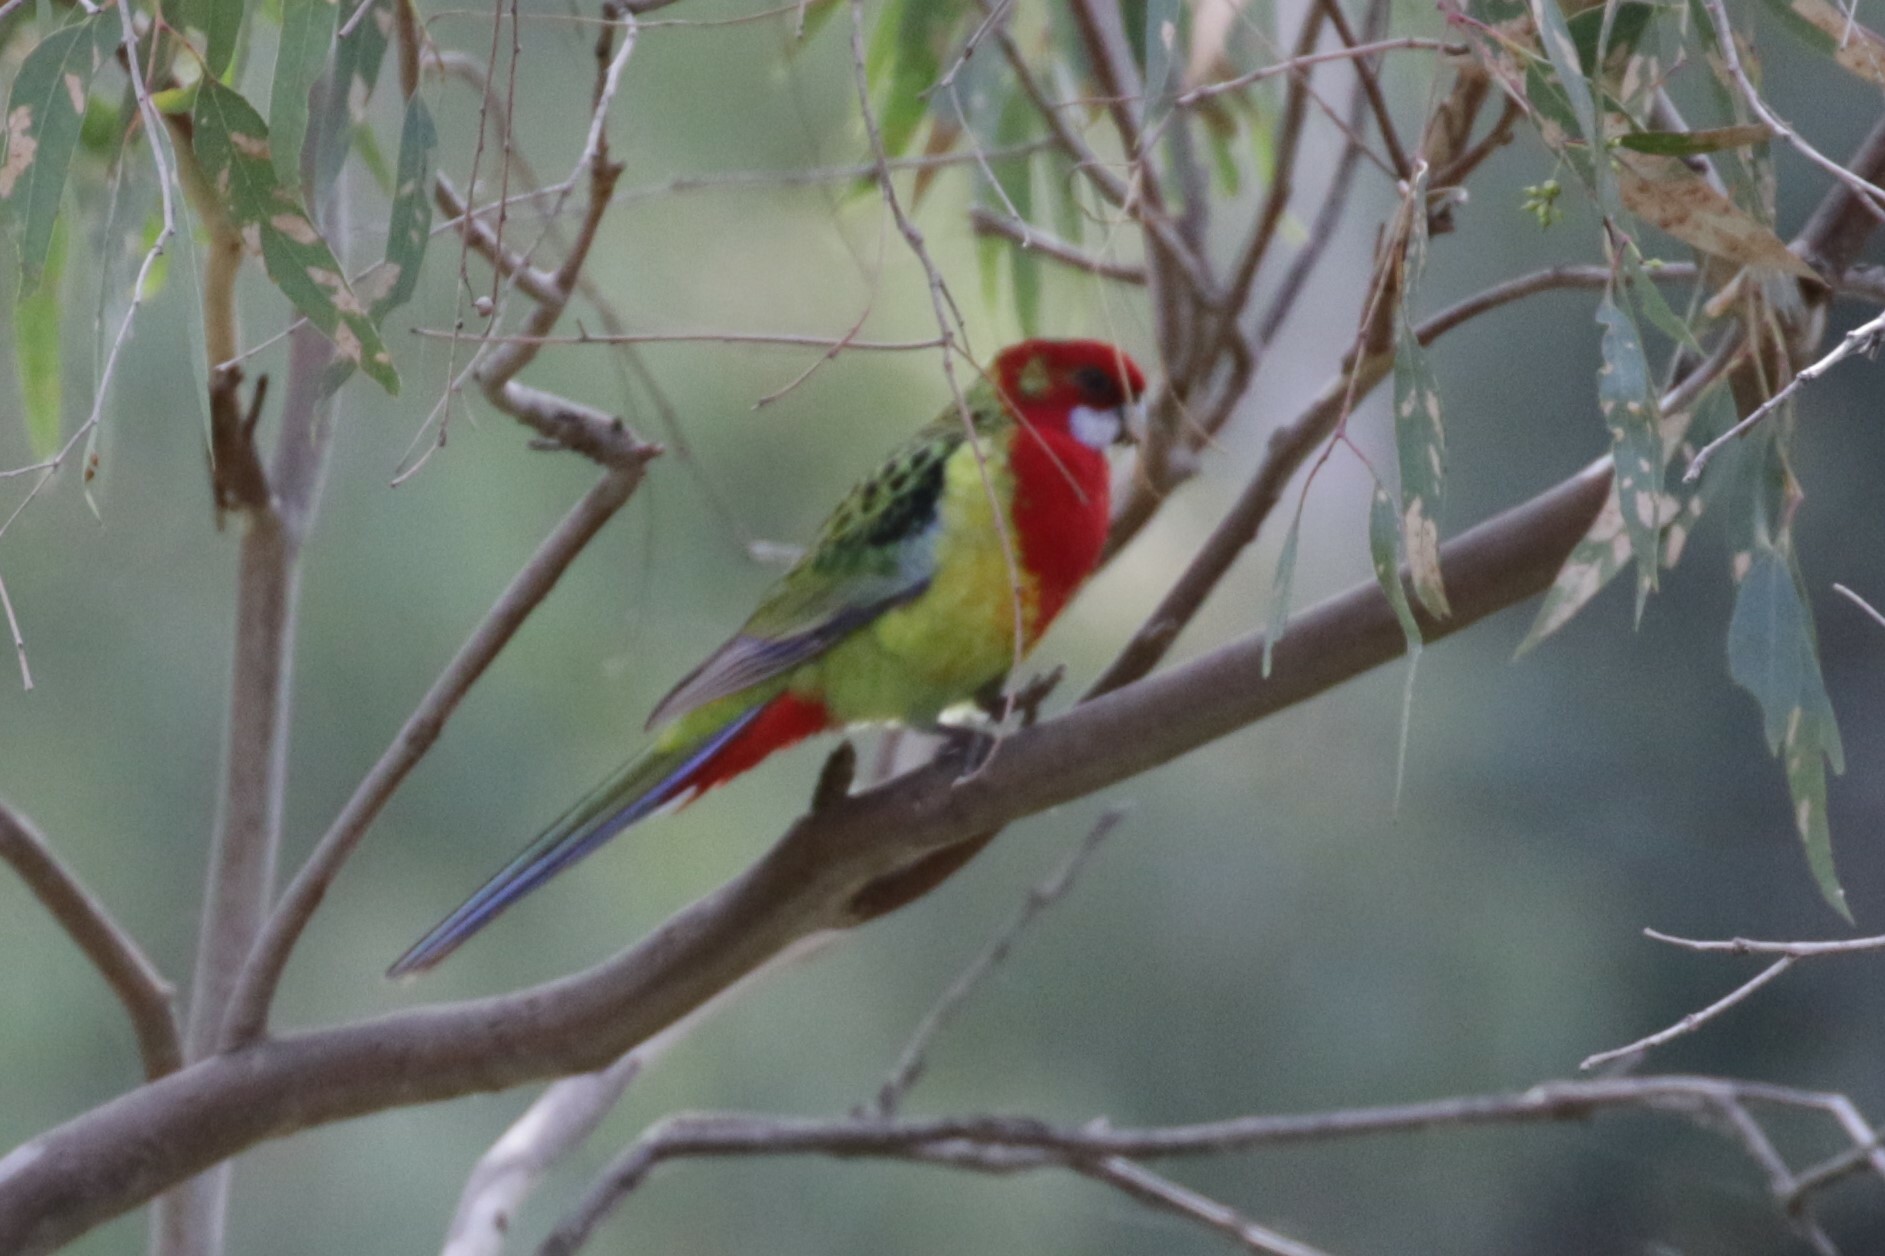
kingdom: Animalia
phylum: Chordata
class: Aves
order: Psittaciformes
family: Psittacidae
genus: Platycercus
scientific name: Platycercus eximius
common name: Eastern rosella
